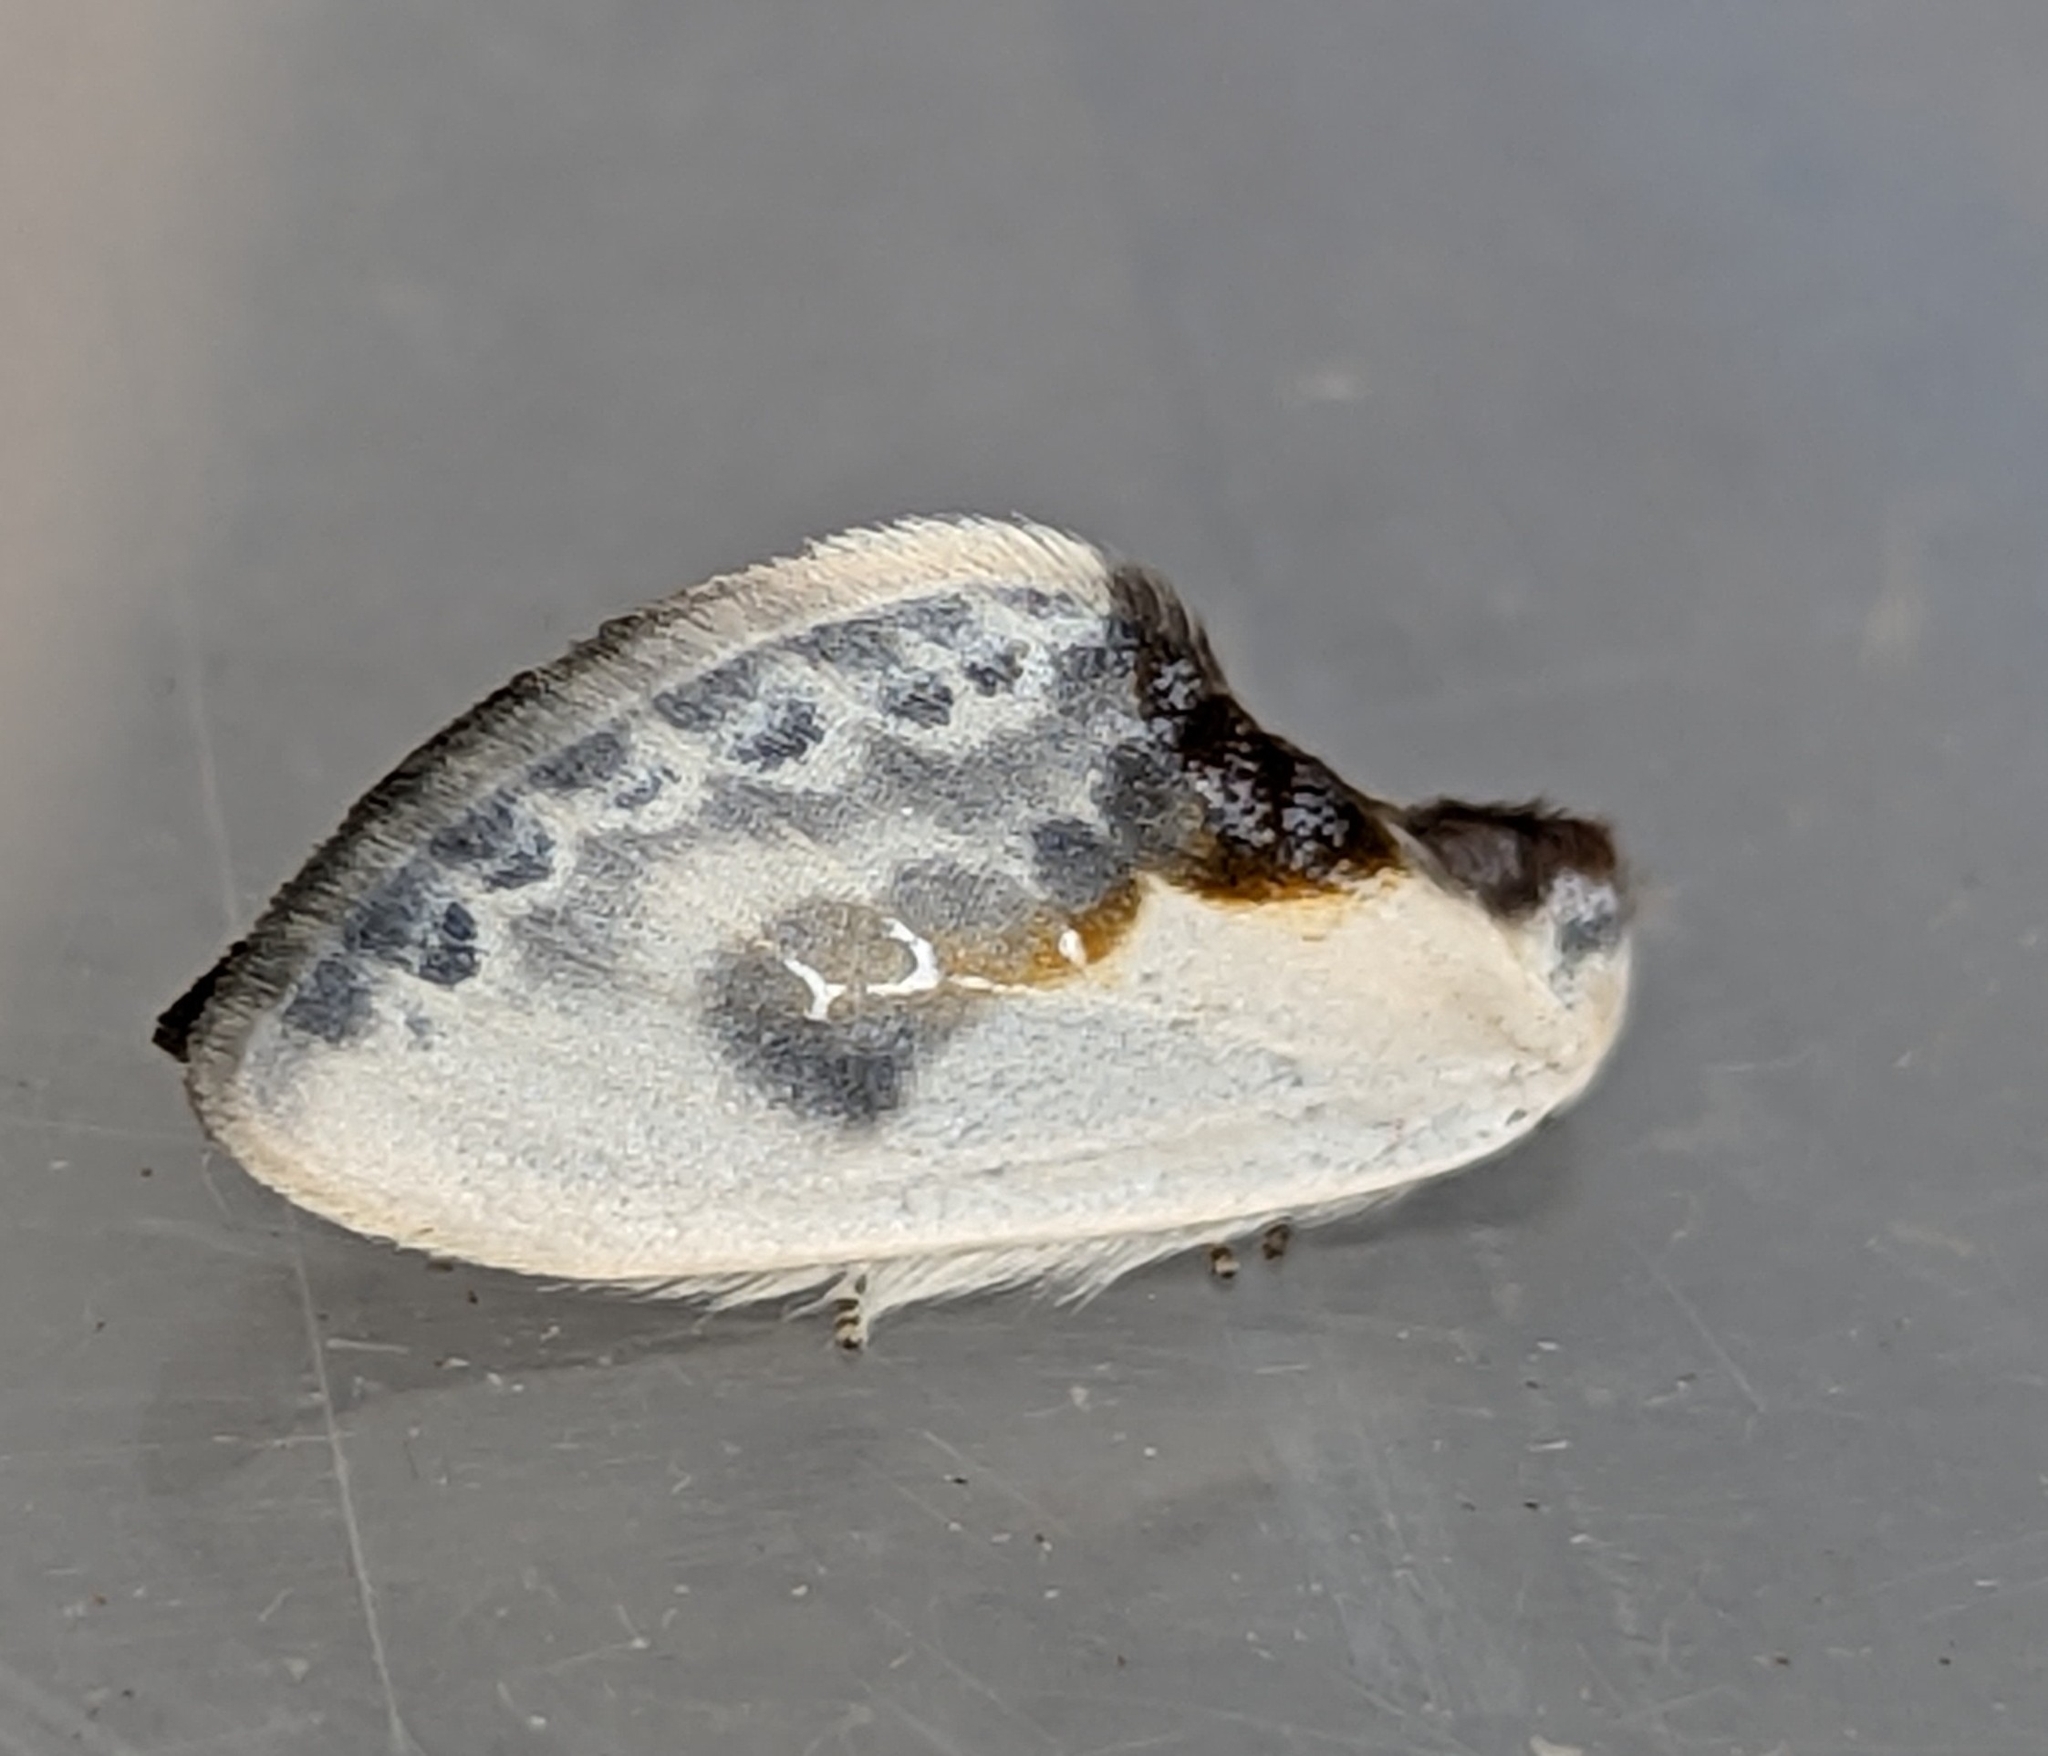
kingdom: Animalia
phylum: Arthropoda
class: Insecta
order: Lepidoptera
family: Drepanidae
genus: Cilix
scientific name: Cilix glaucata
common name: Chinese character
